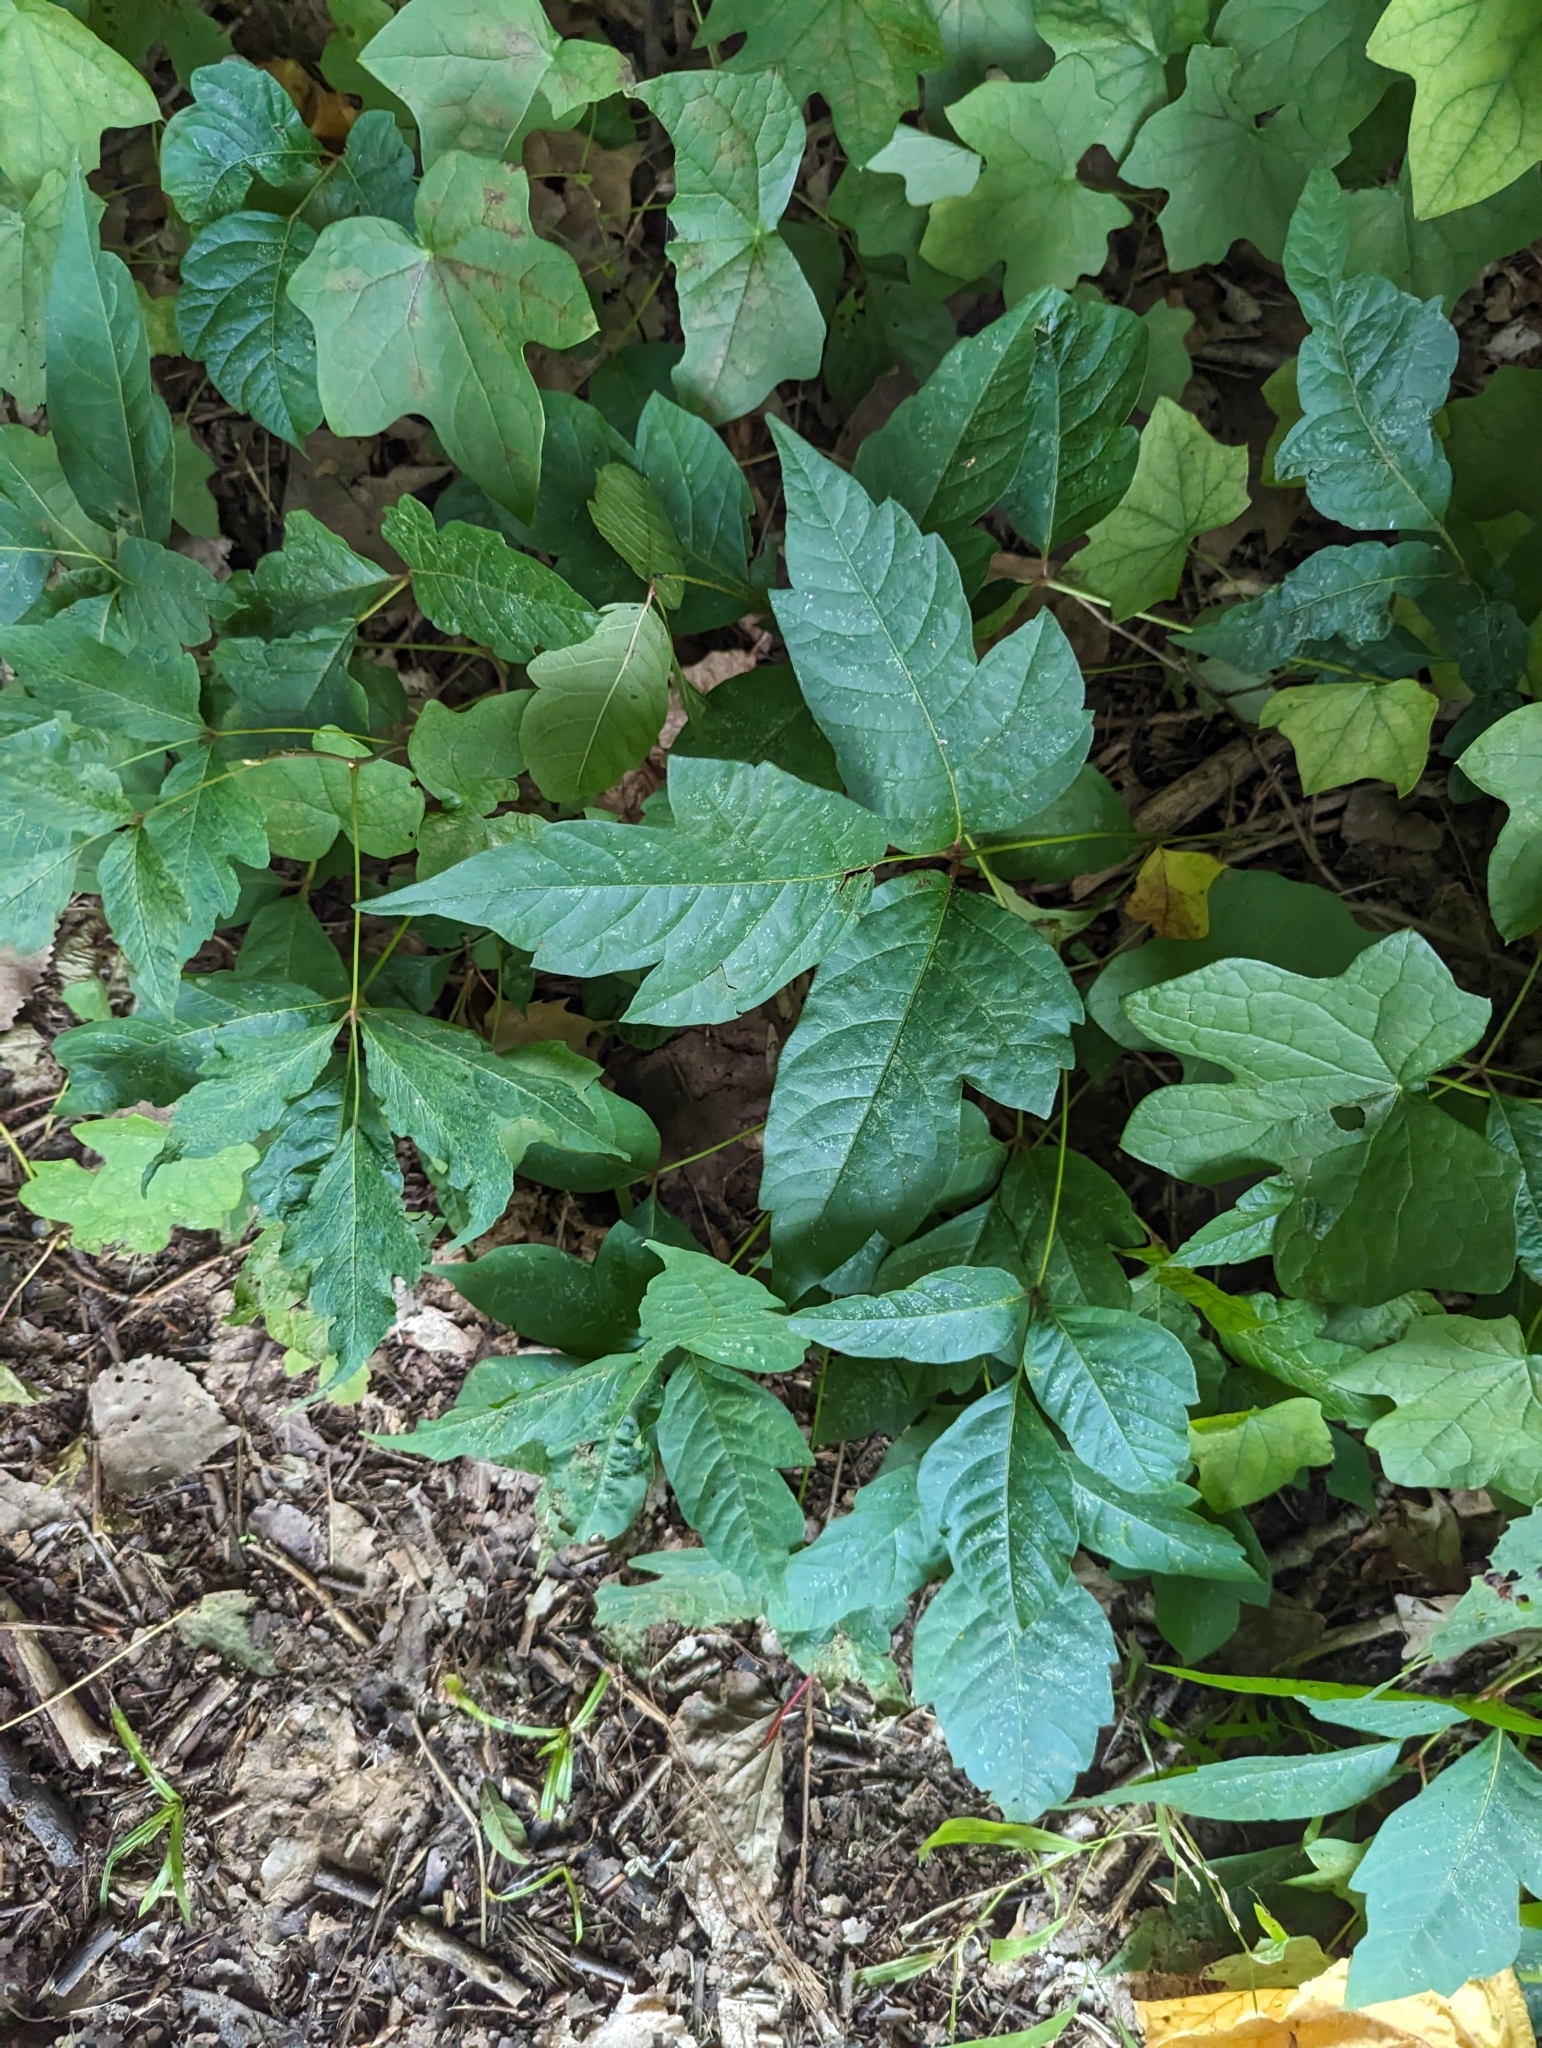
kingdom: Plantae
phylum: Tracheophyta
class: Magnoliopsida
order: Sapindales
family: Anacardiaceae
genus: Toxicodendron
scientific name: Toxicodendron radicans
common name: Poison ivy
